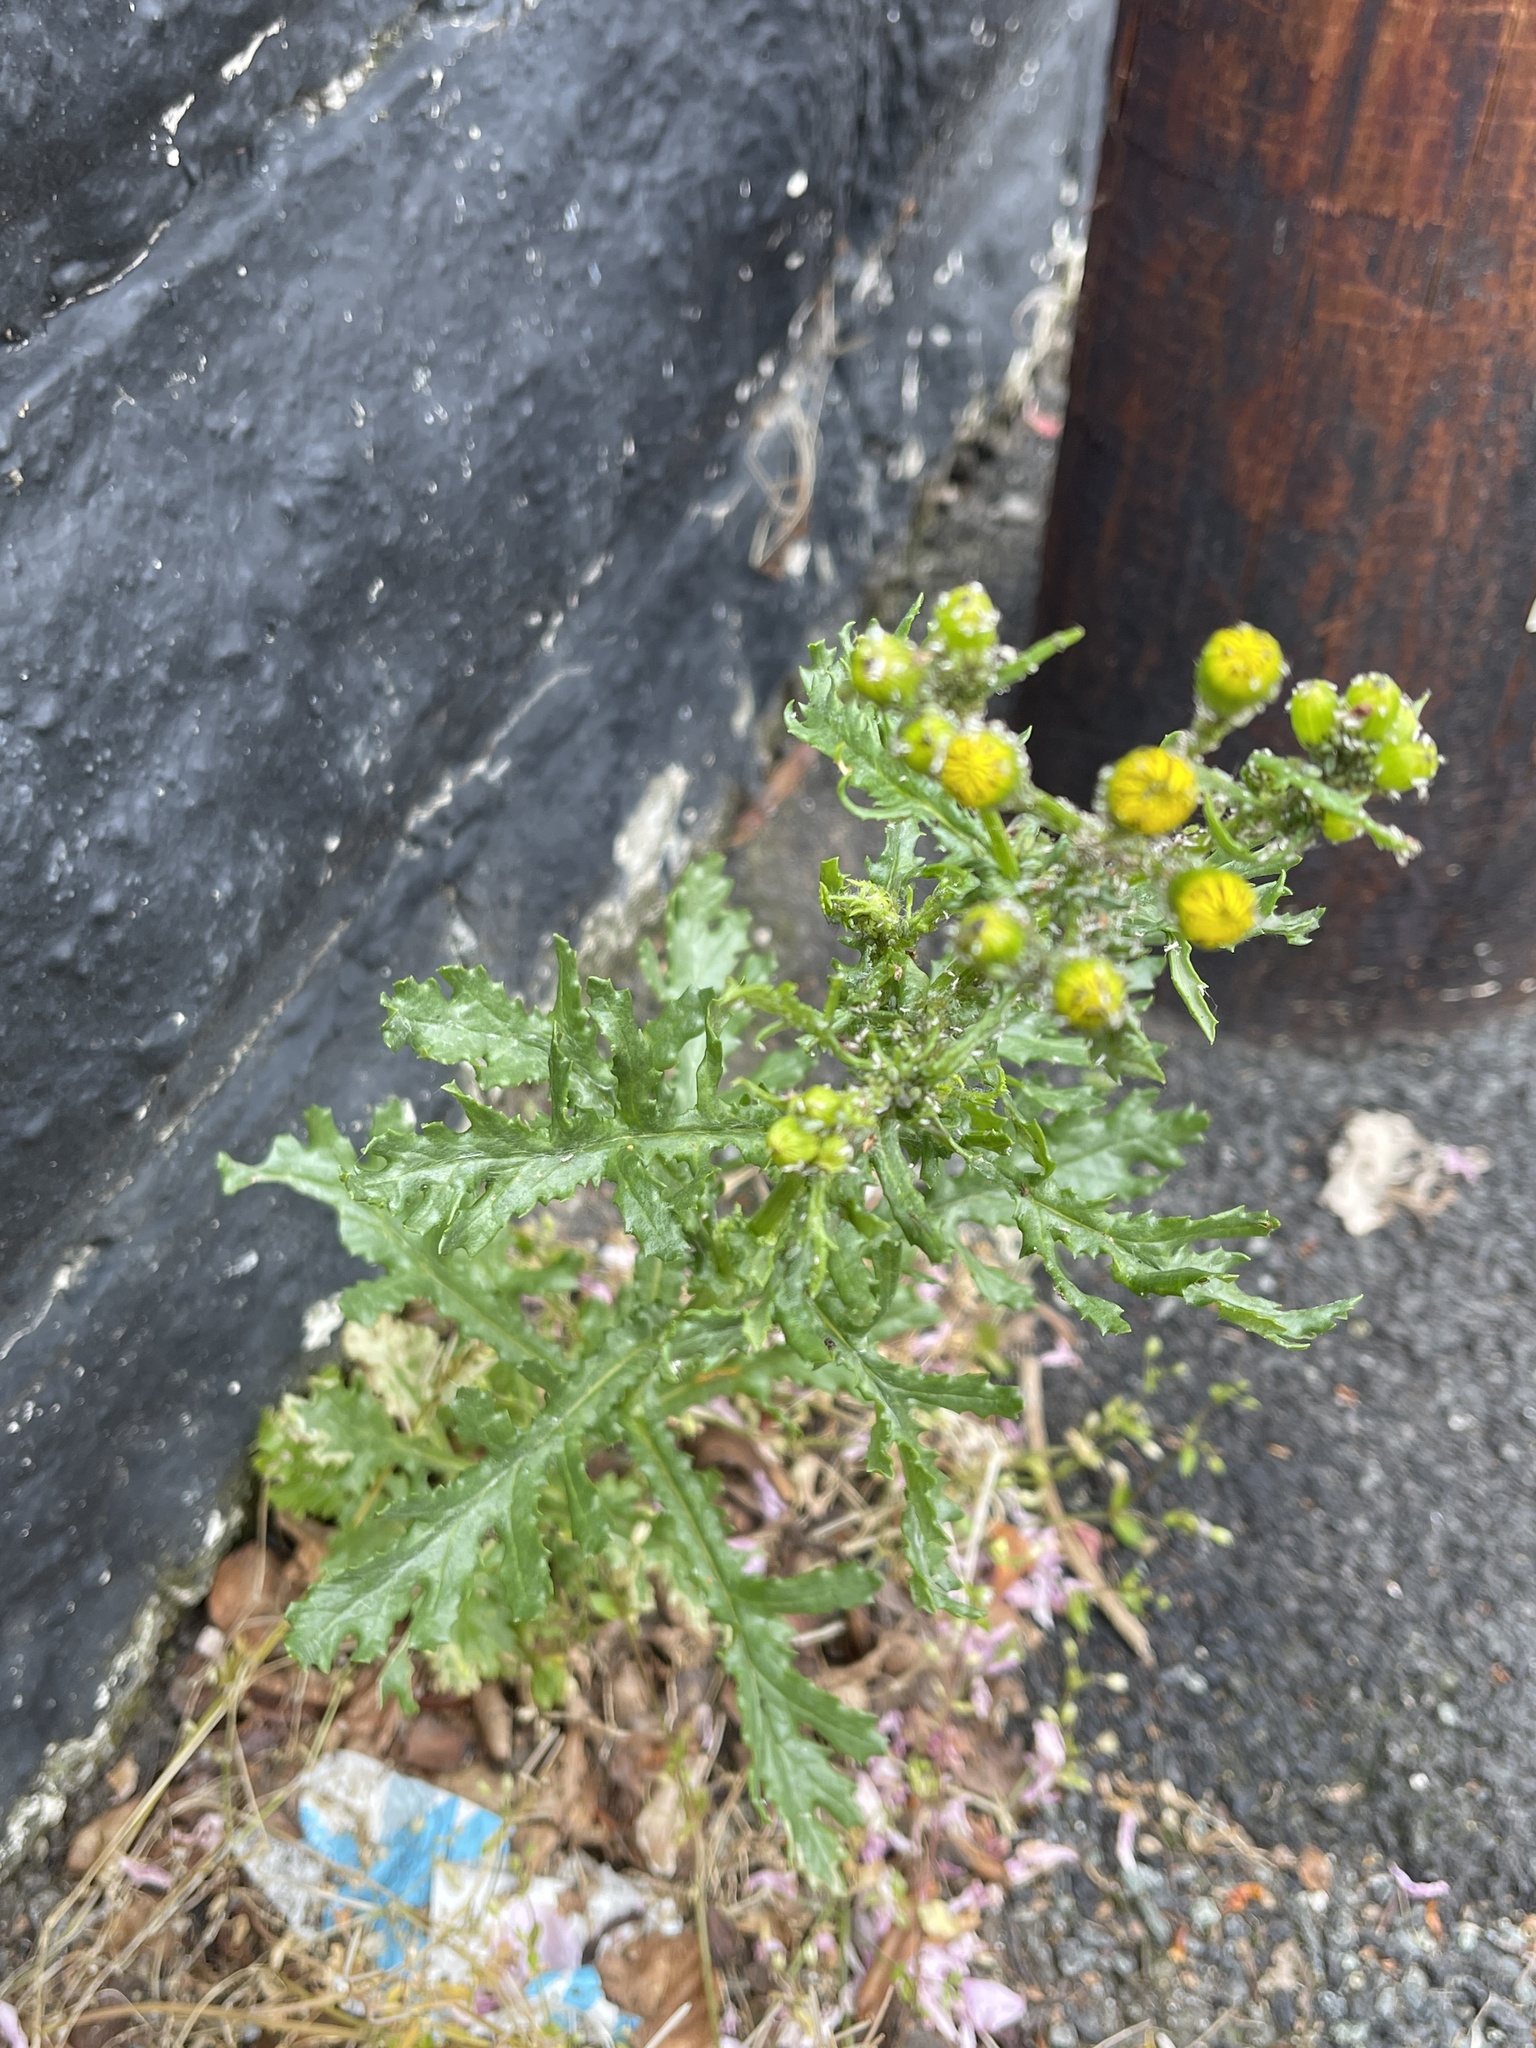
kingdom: Plantae
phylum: Tracheophyta
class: Magnoliopsida
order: Asterales
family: Asteraceae
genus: Senecio
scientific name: Senecio squalidus
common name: Oxford ragwort
